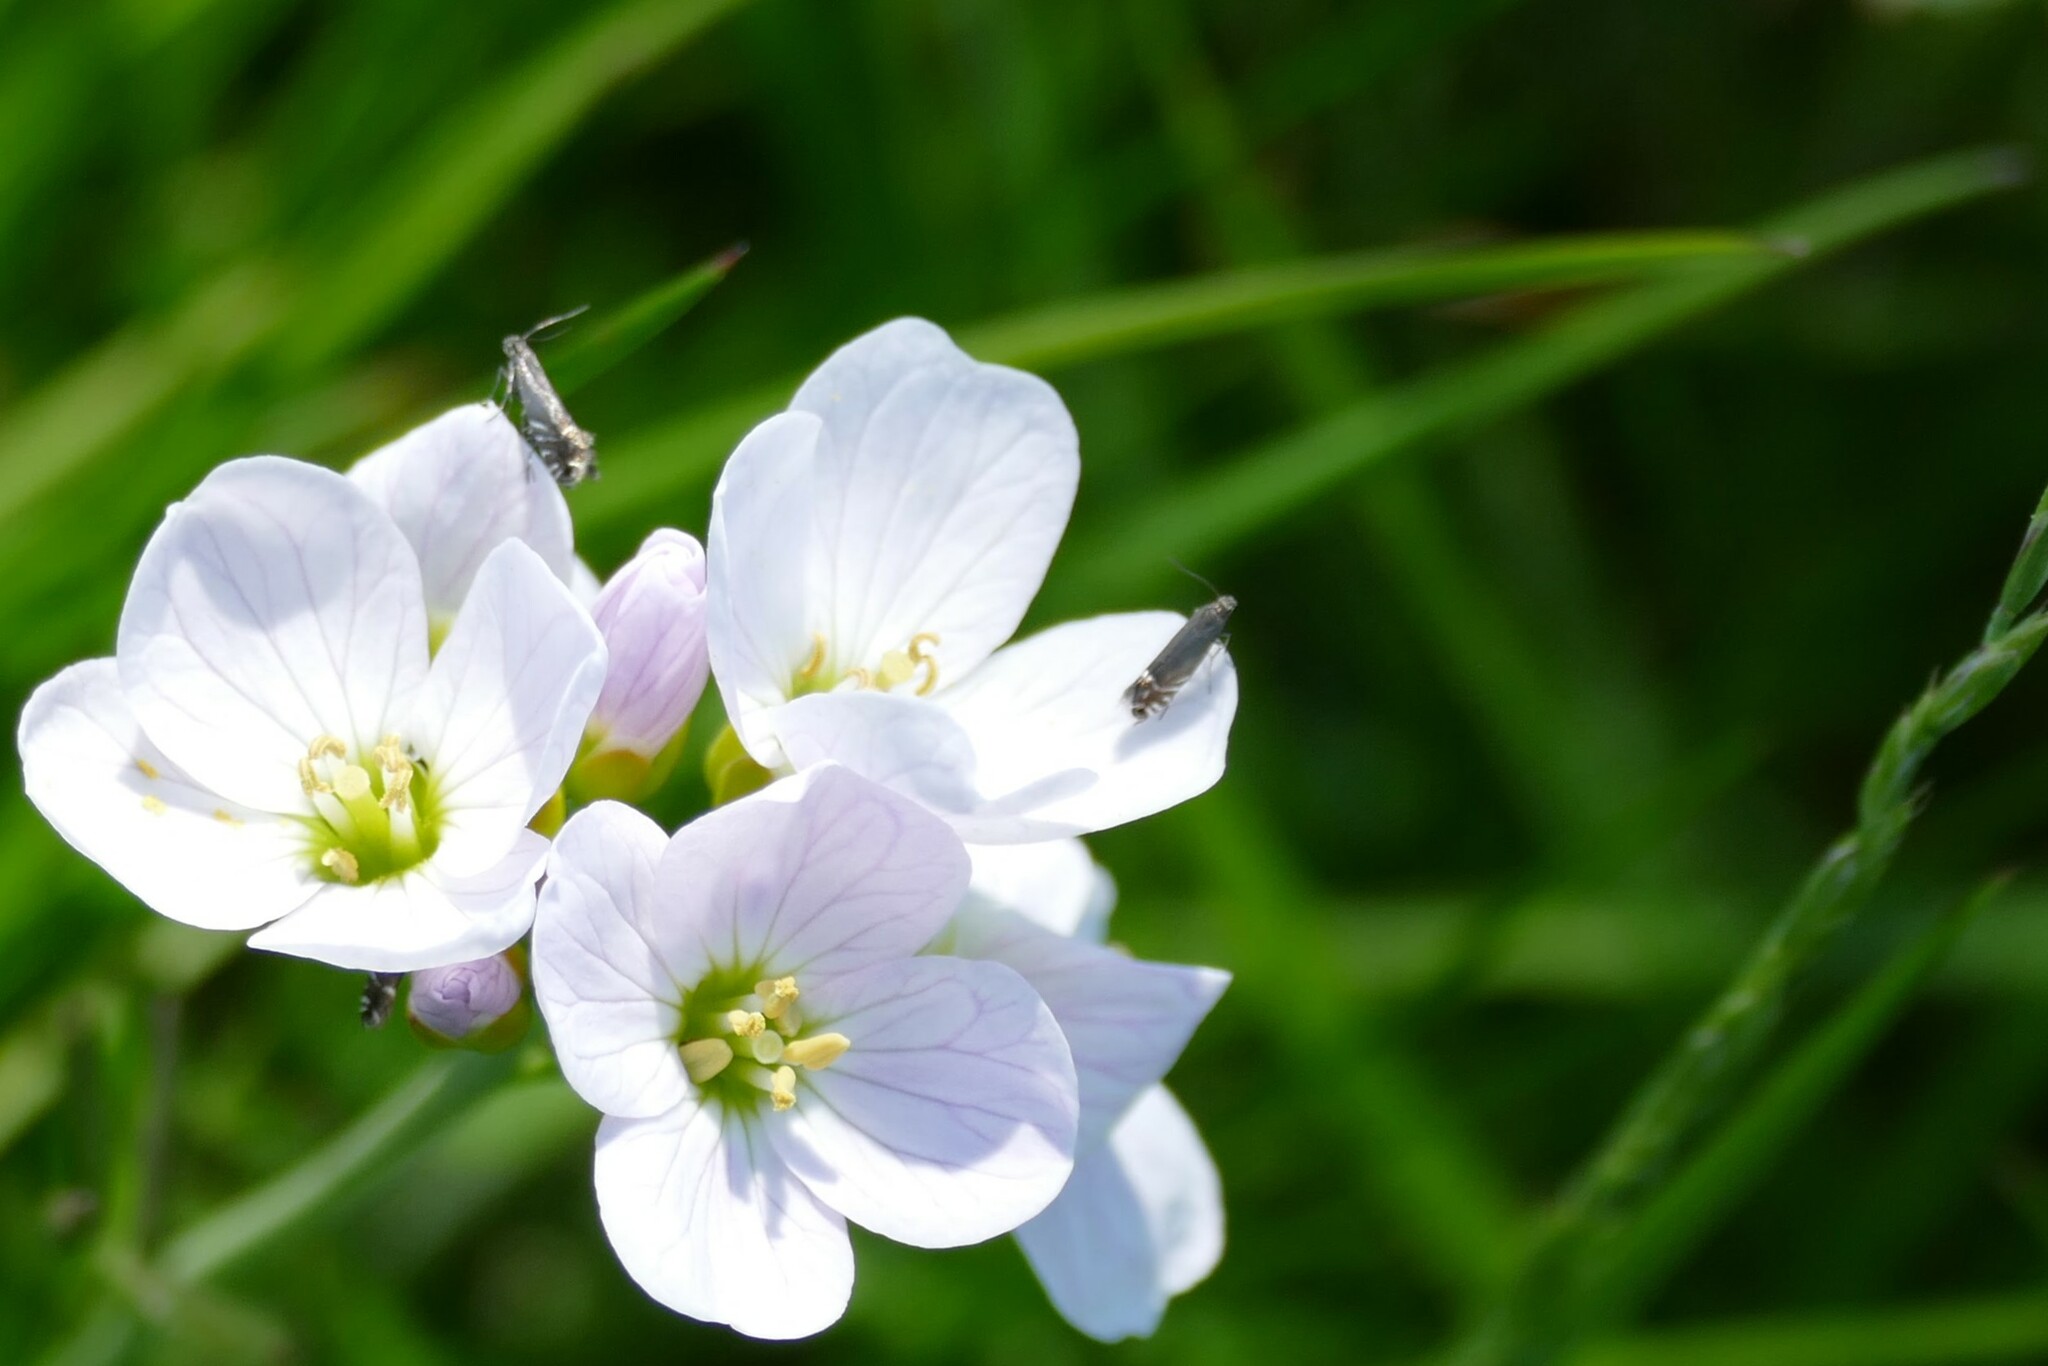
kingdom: Animalia
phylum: Arthropoda
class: Insecta
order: Lepidoptera
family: Glyphipterigidae
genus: Glyphipterix
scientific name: Glyphipterix simpliciella
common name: Cocksfoot moth
